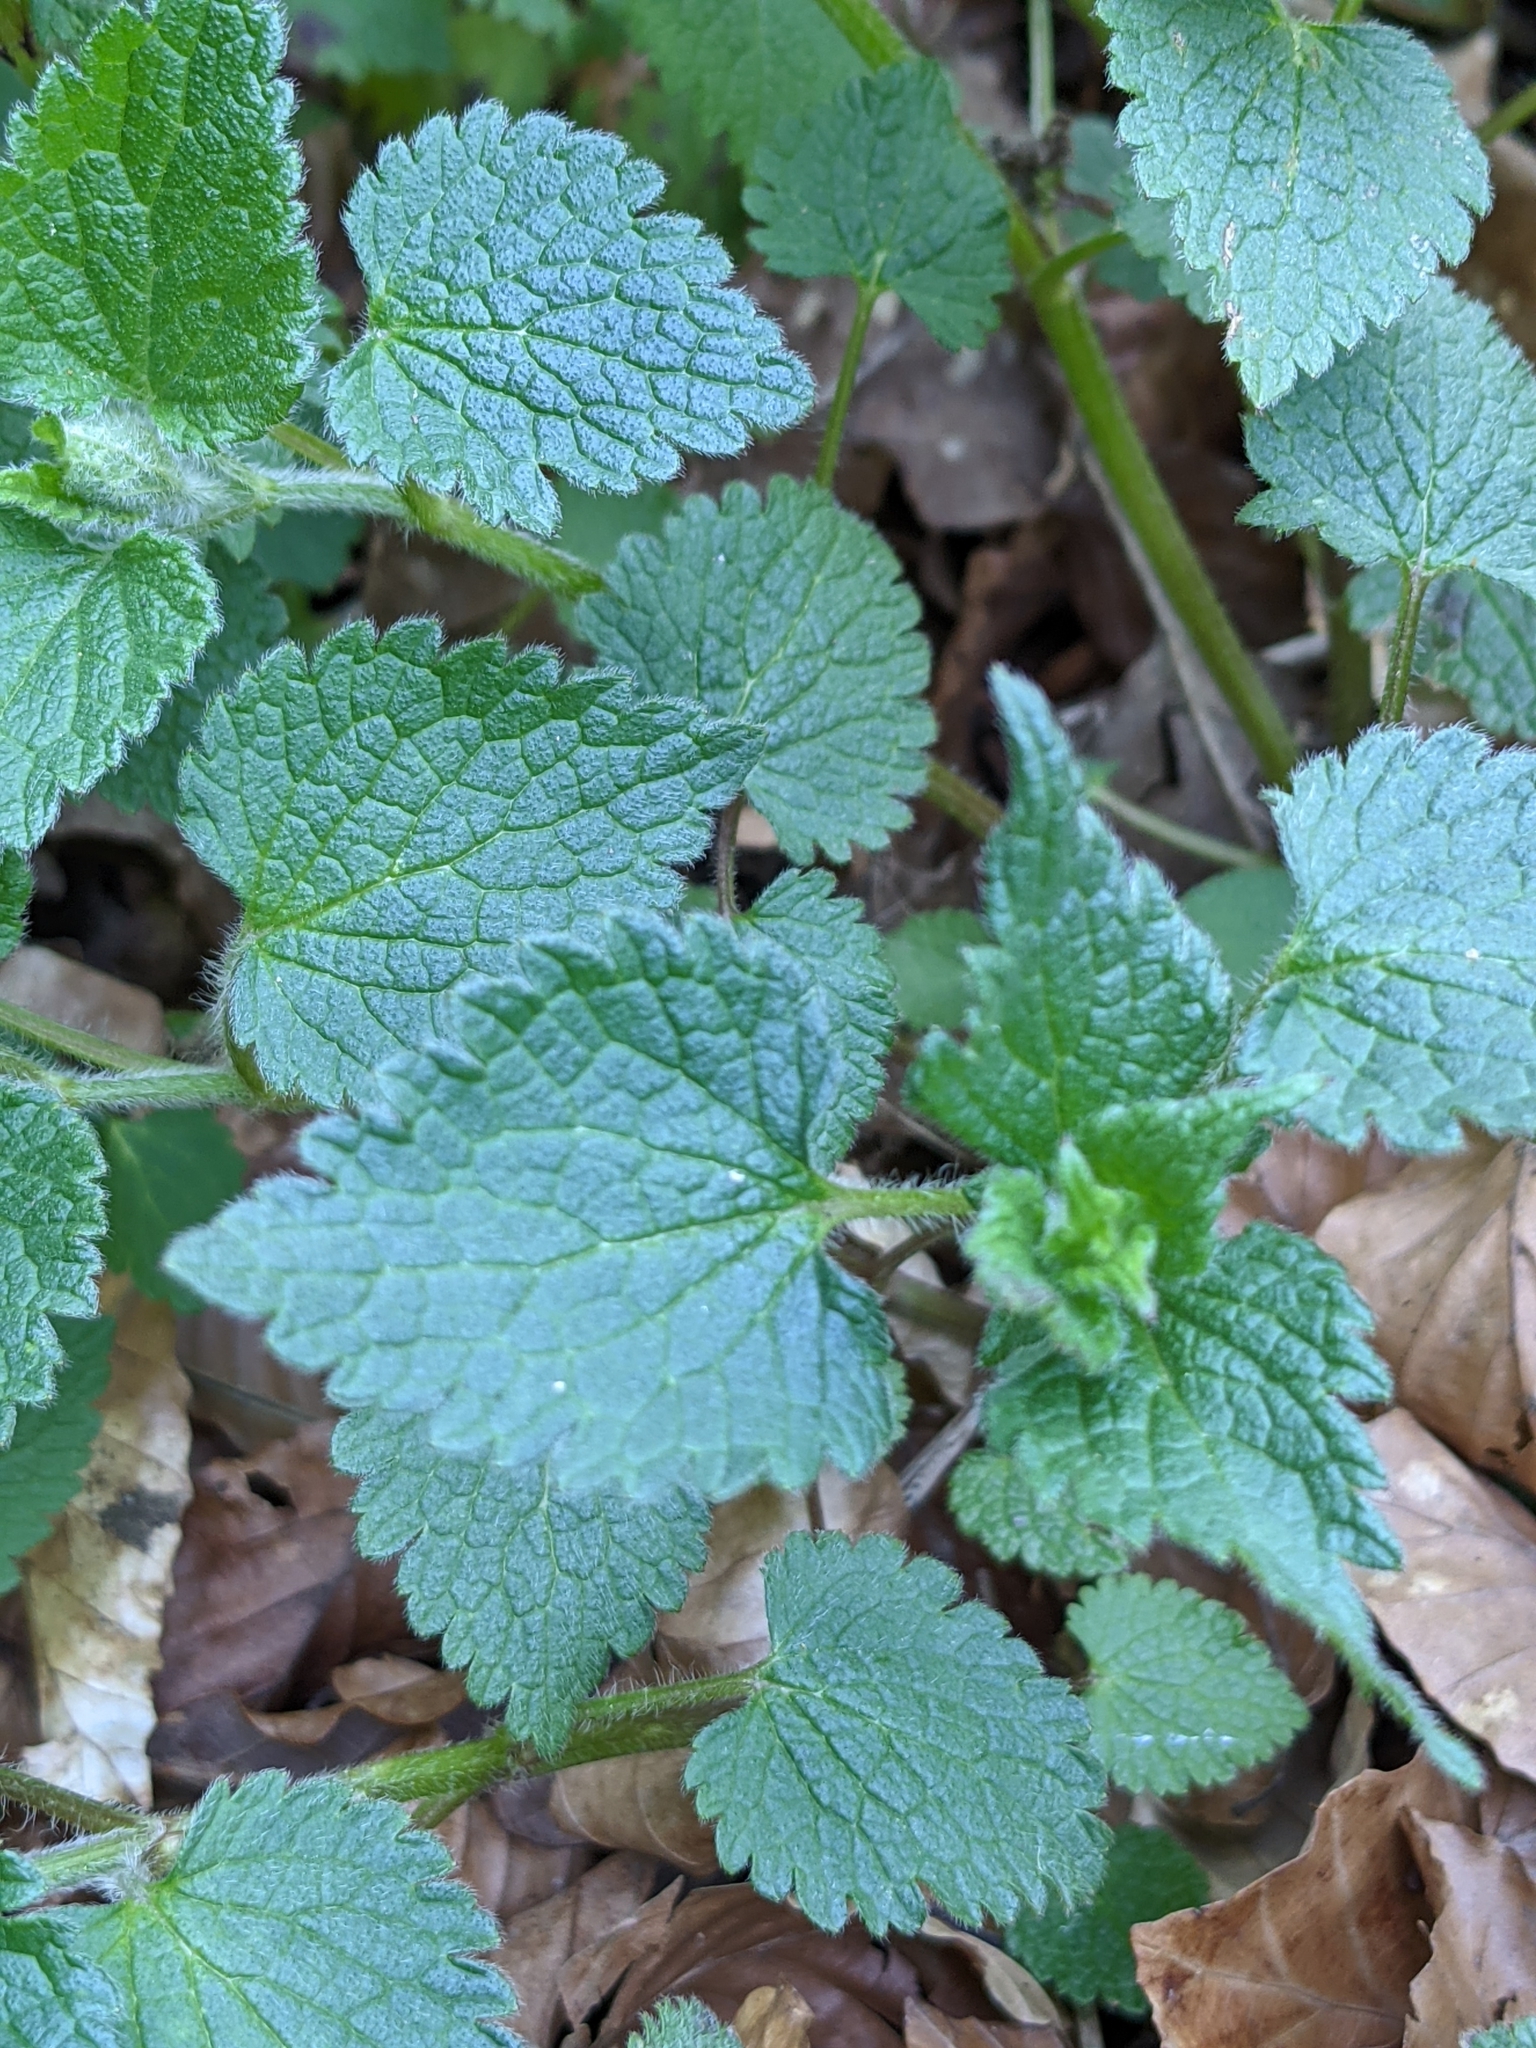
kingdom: Plantae
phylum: Tracheophyta
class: Magnoliopsida
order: Lamiales
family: Lamiaceae
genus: Lamium
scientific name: Lamium maculatum
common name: Spotted dead-nettle
